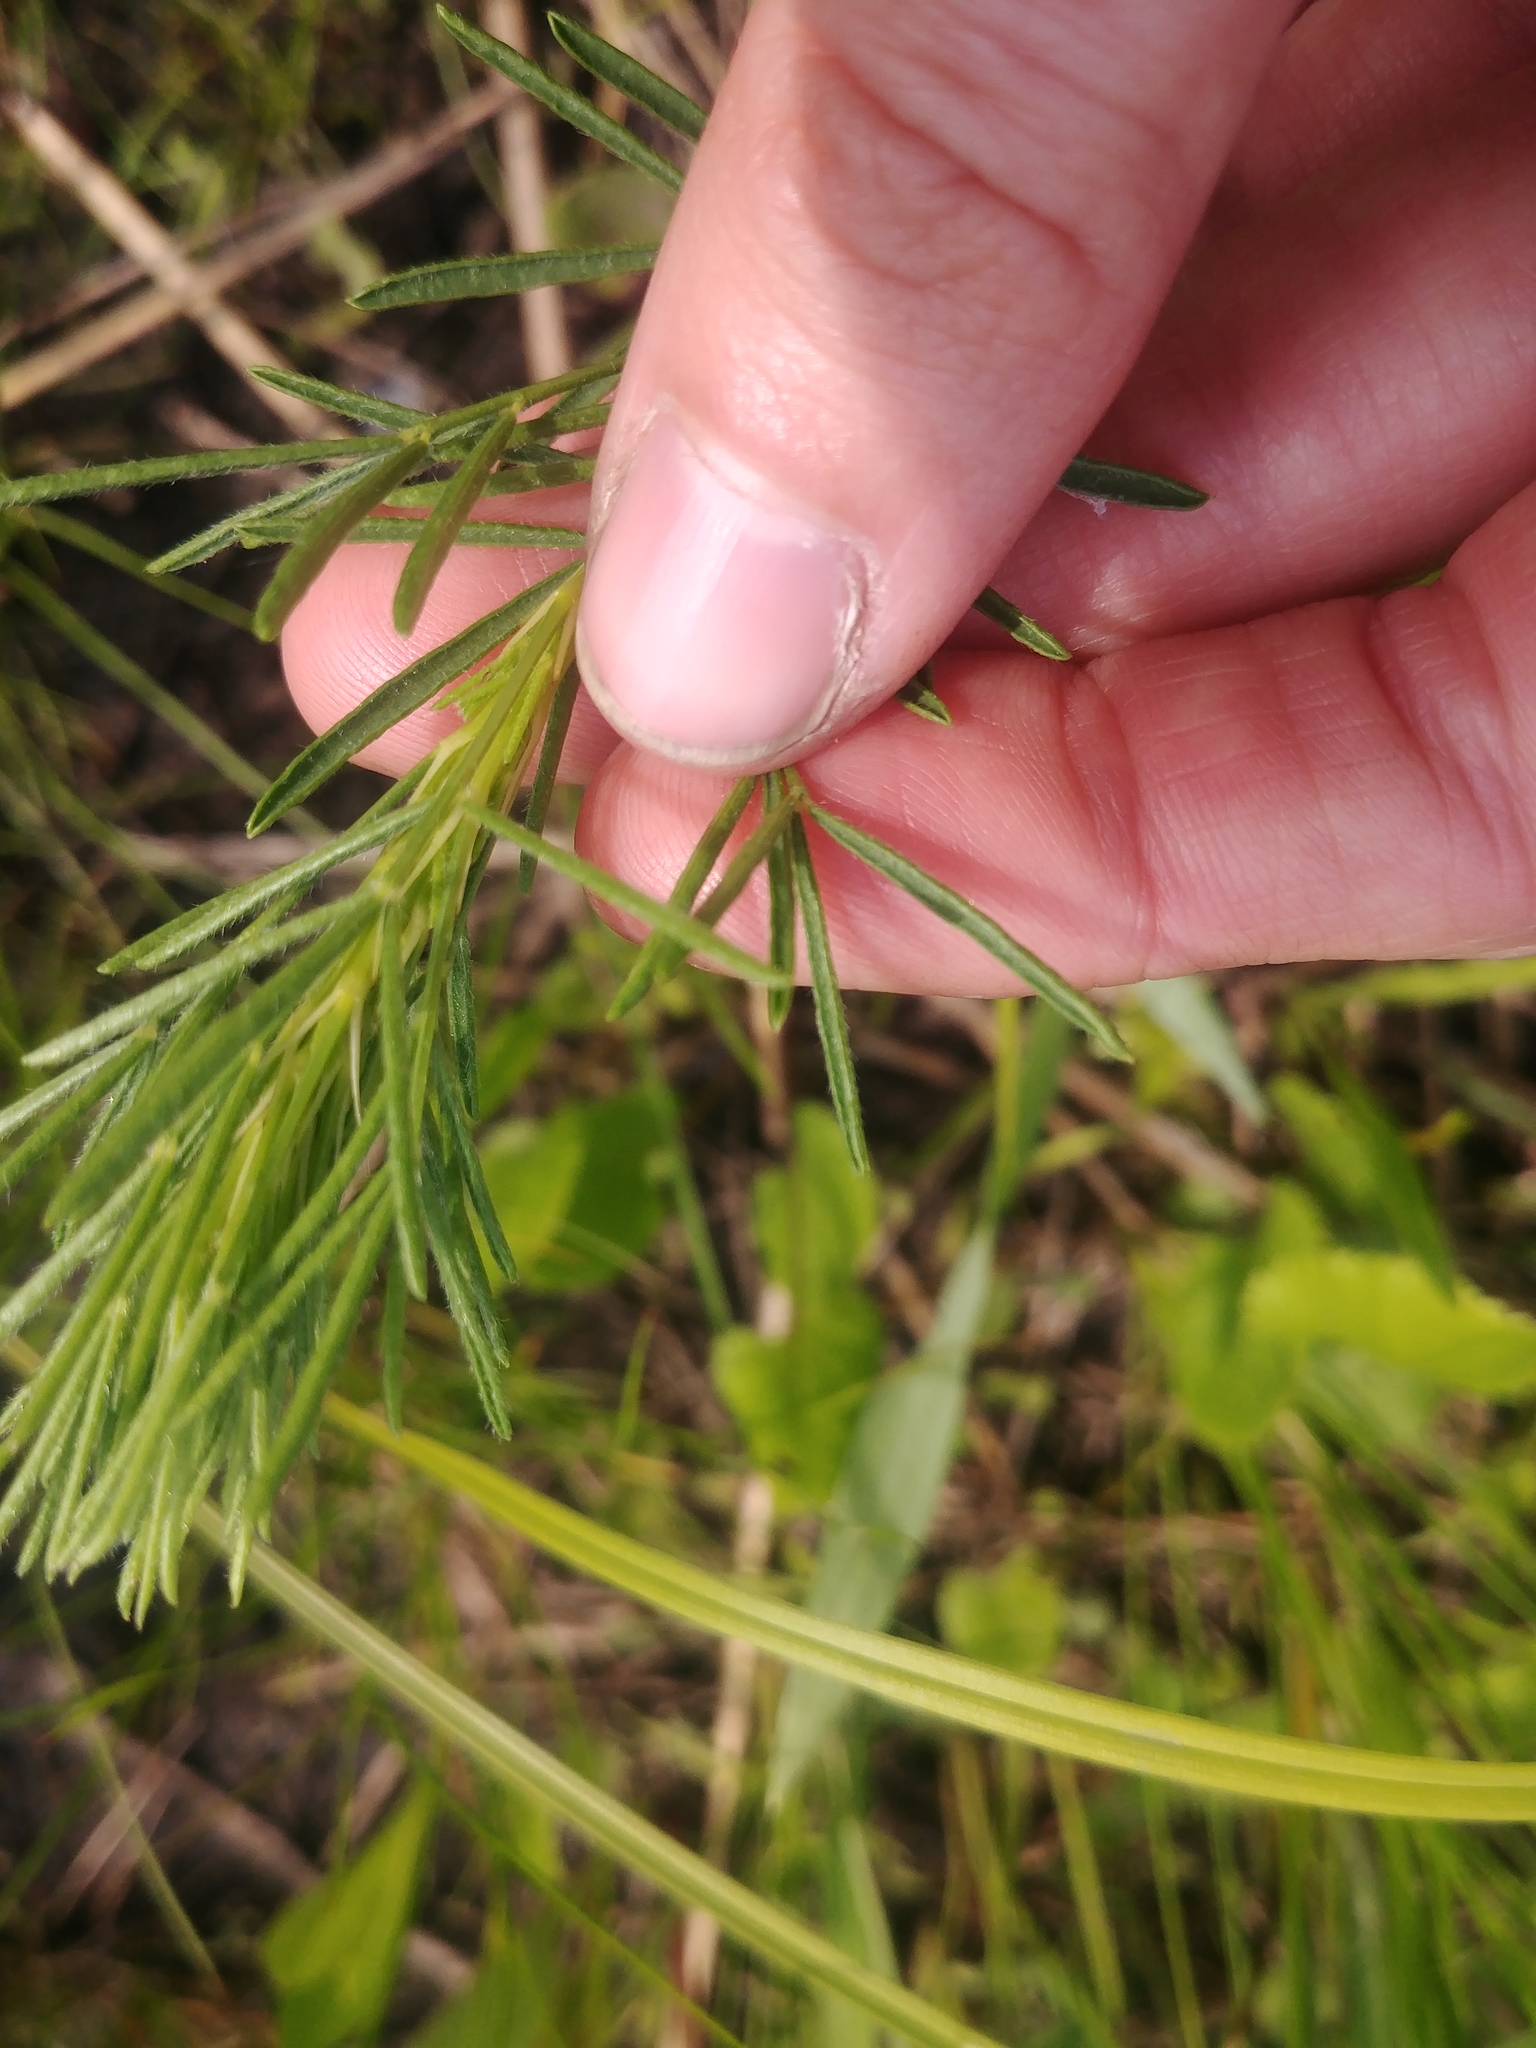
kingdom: Plantae
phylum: Tracheophyta
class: Magnoliopsida
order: Fabales
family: Fabaceae
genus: Dalea
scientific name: Dalea purpurea
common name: Purple prairie-clover
